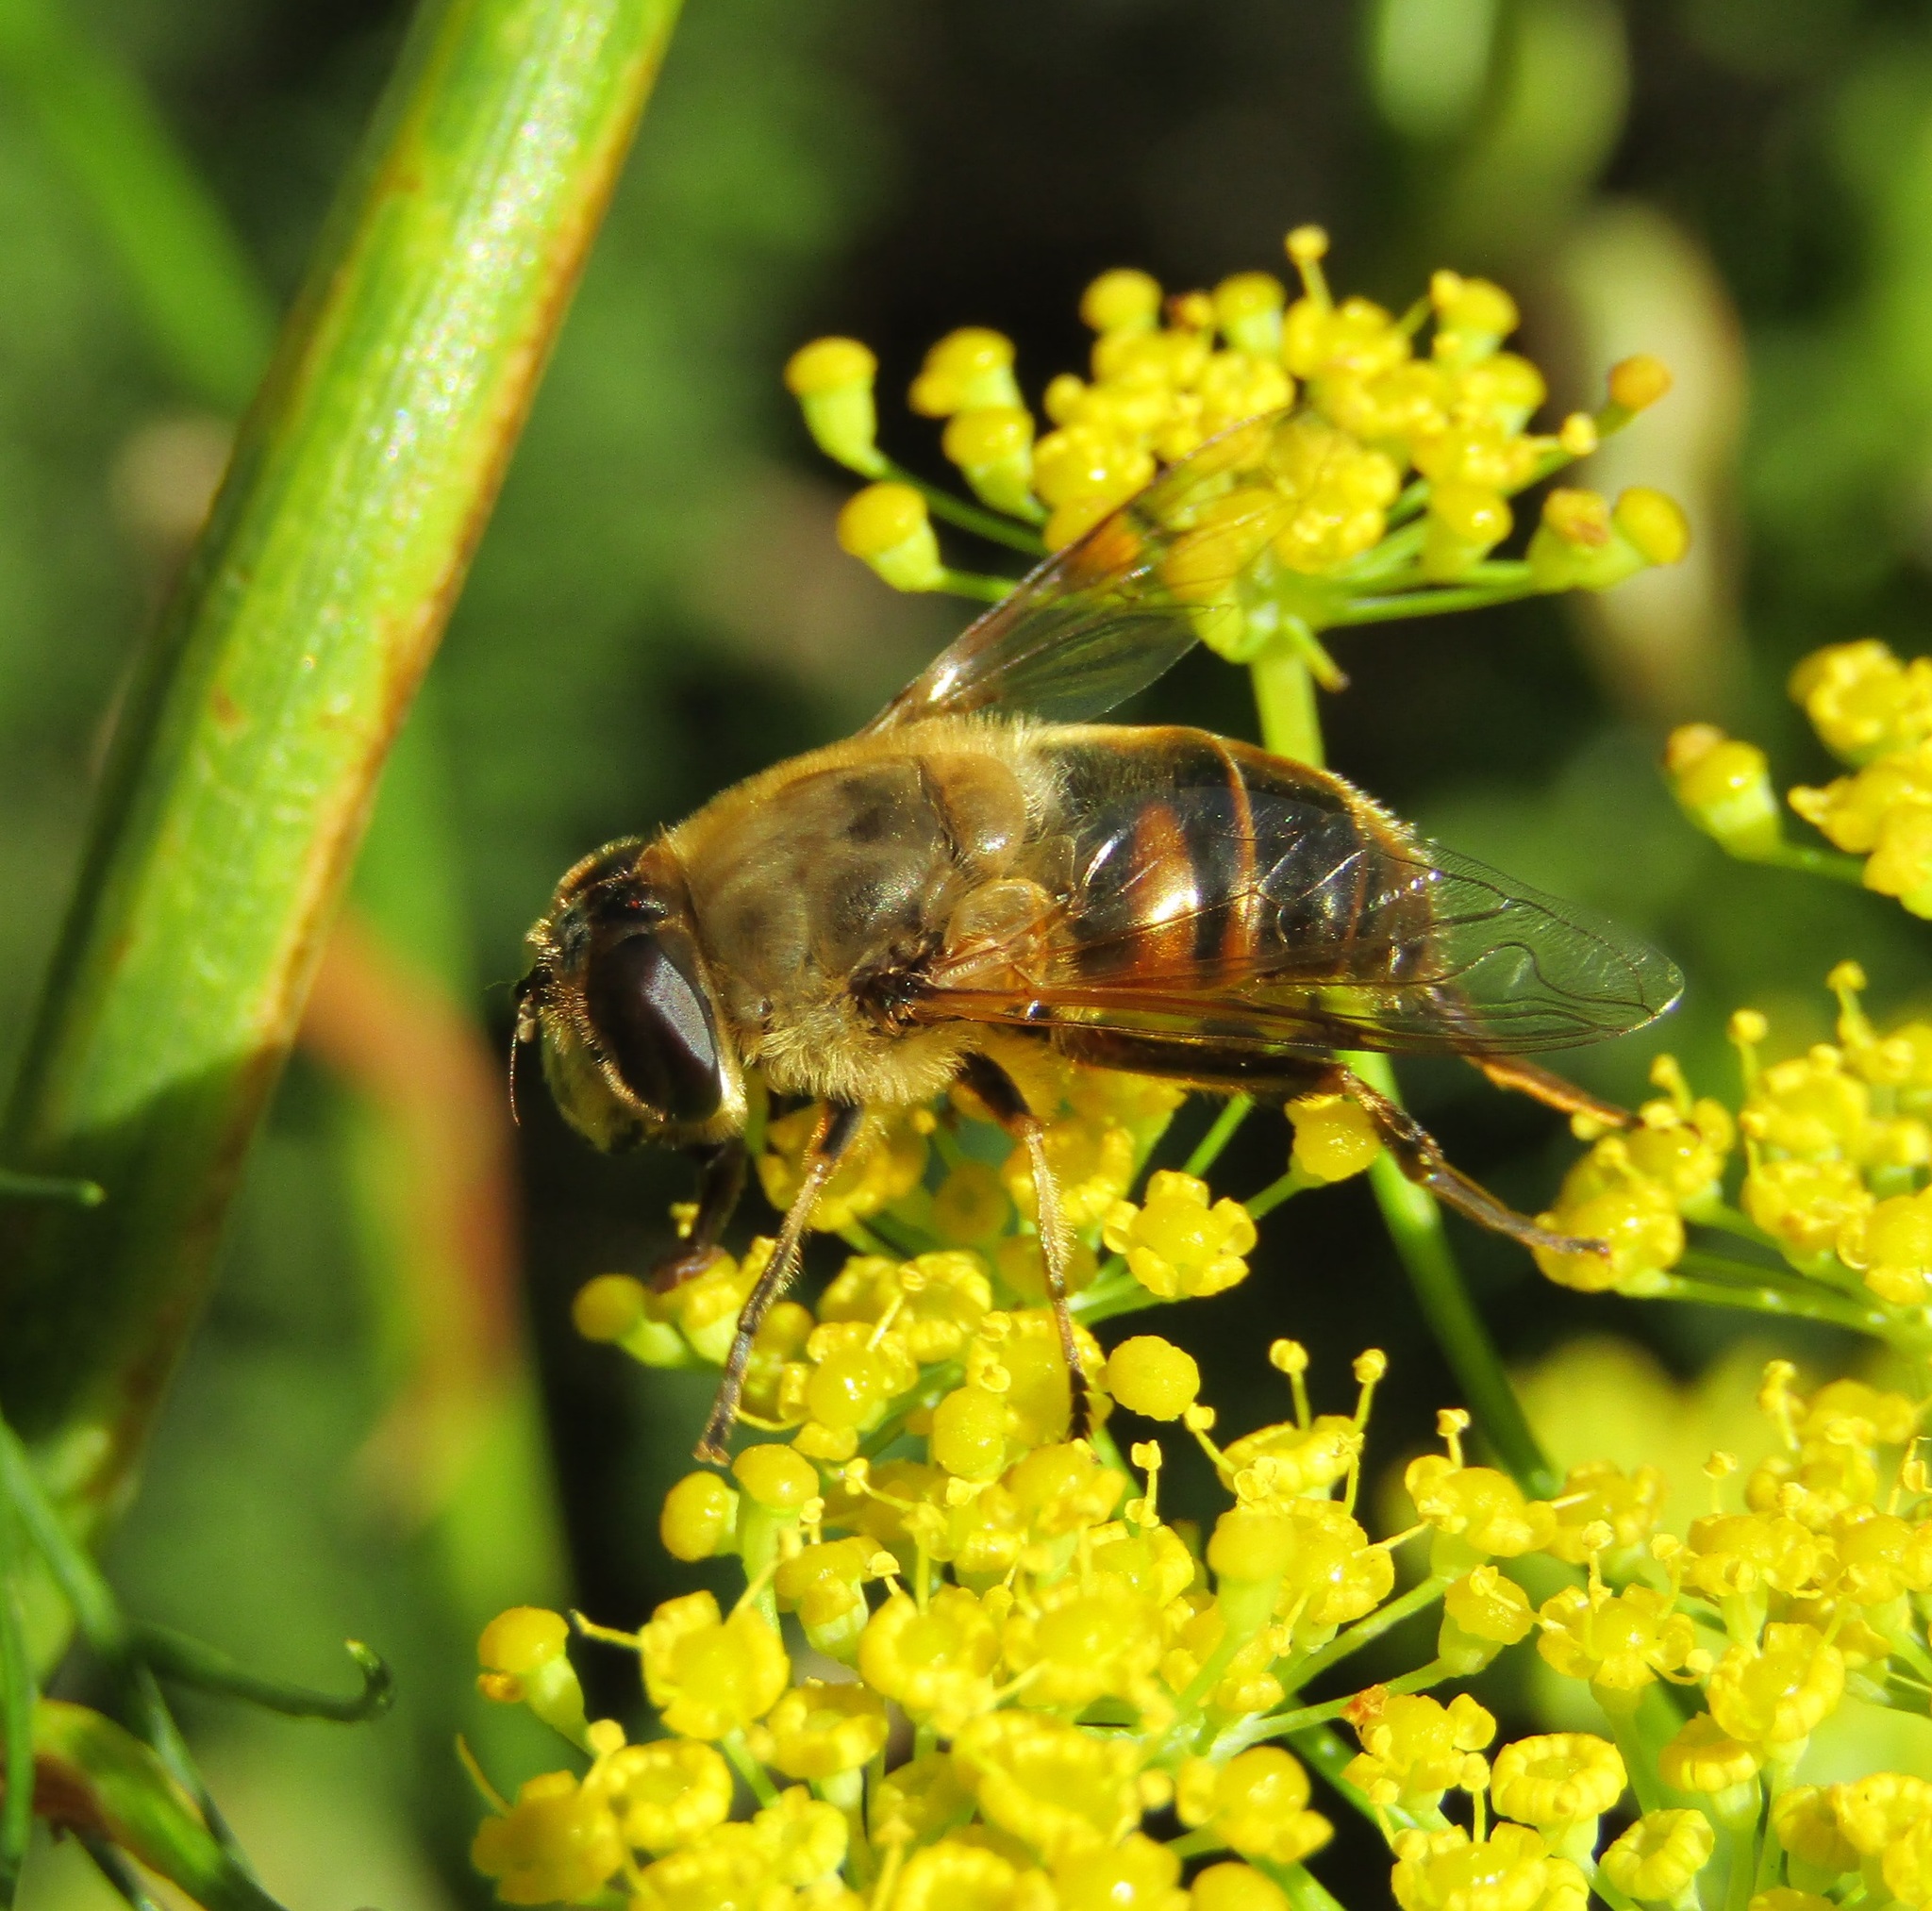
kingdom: Animalia
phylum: Arthropoda
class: Insecta
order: Diptera
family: Syrphidae
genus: Eristalis
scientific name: Eristalis tenax
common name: Drone fly
